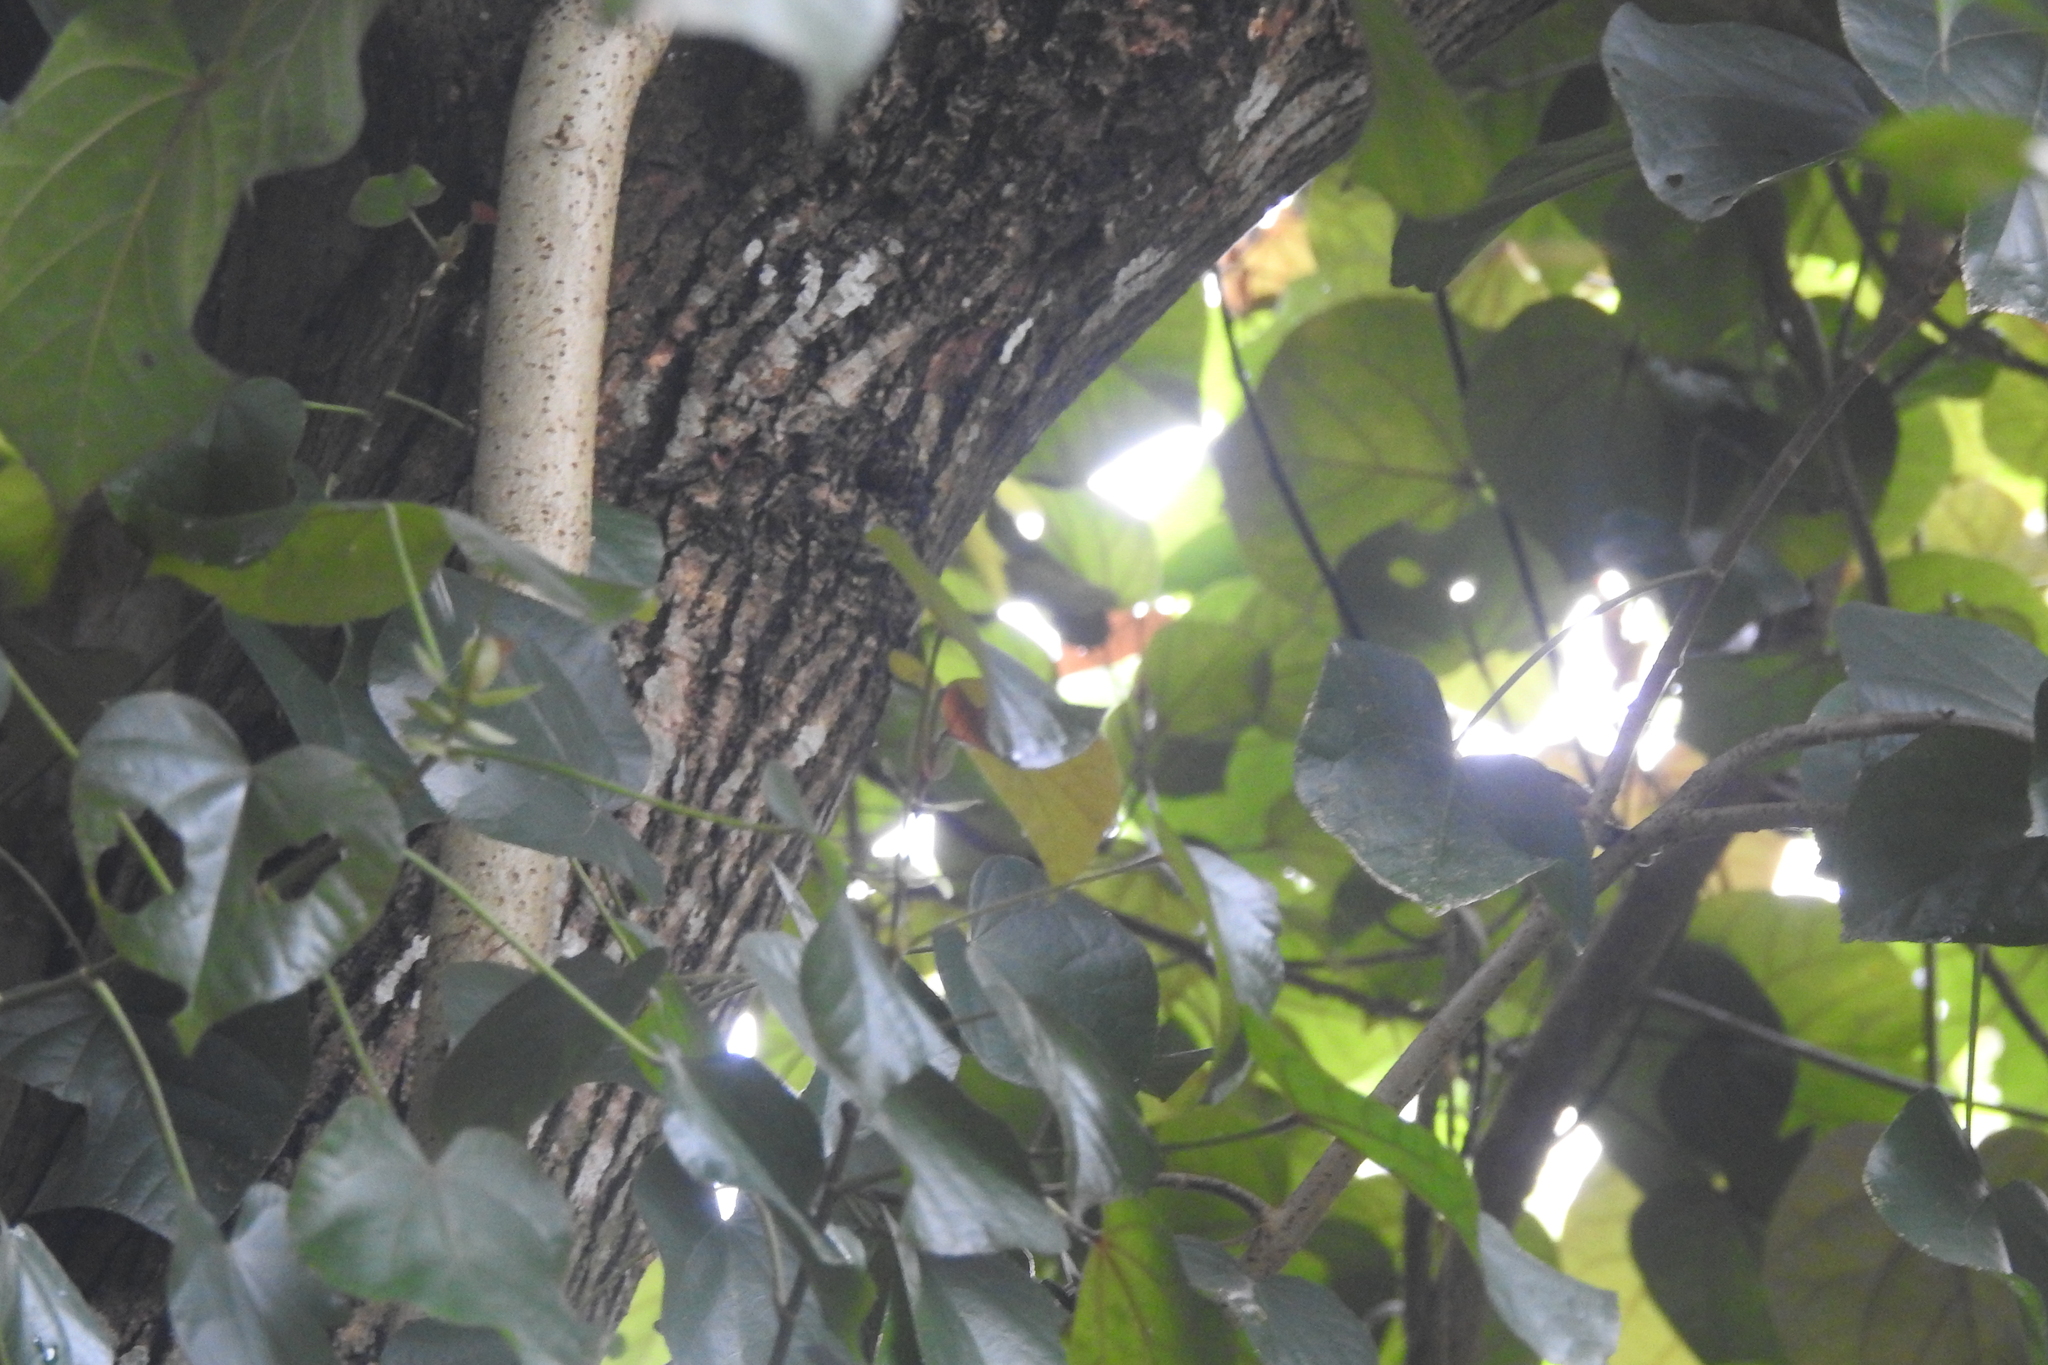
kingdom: Plantae
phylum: Tracheophyta
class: Magnoliopsida
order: Malvales
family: Malvaceae
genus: Talipariti
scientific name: Talipariti tiliaceum
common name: Sea hibiscus
